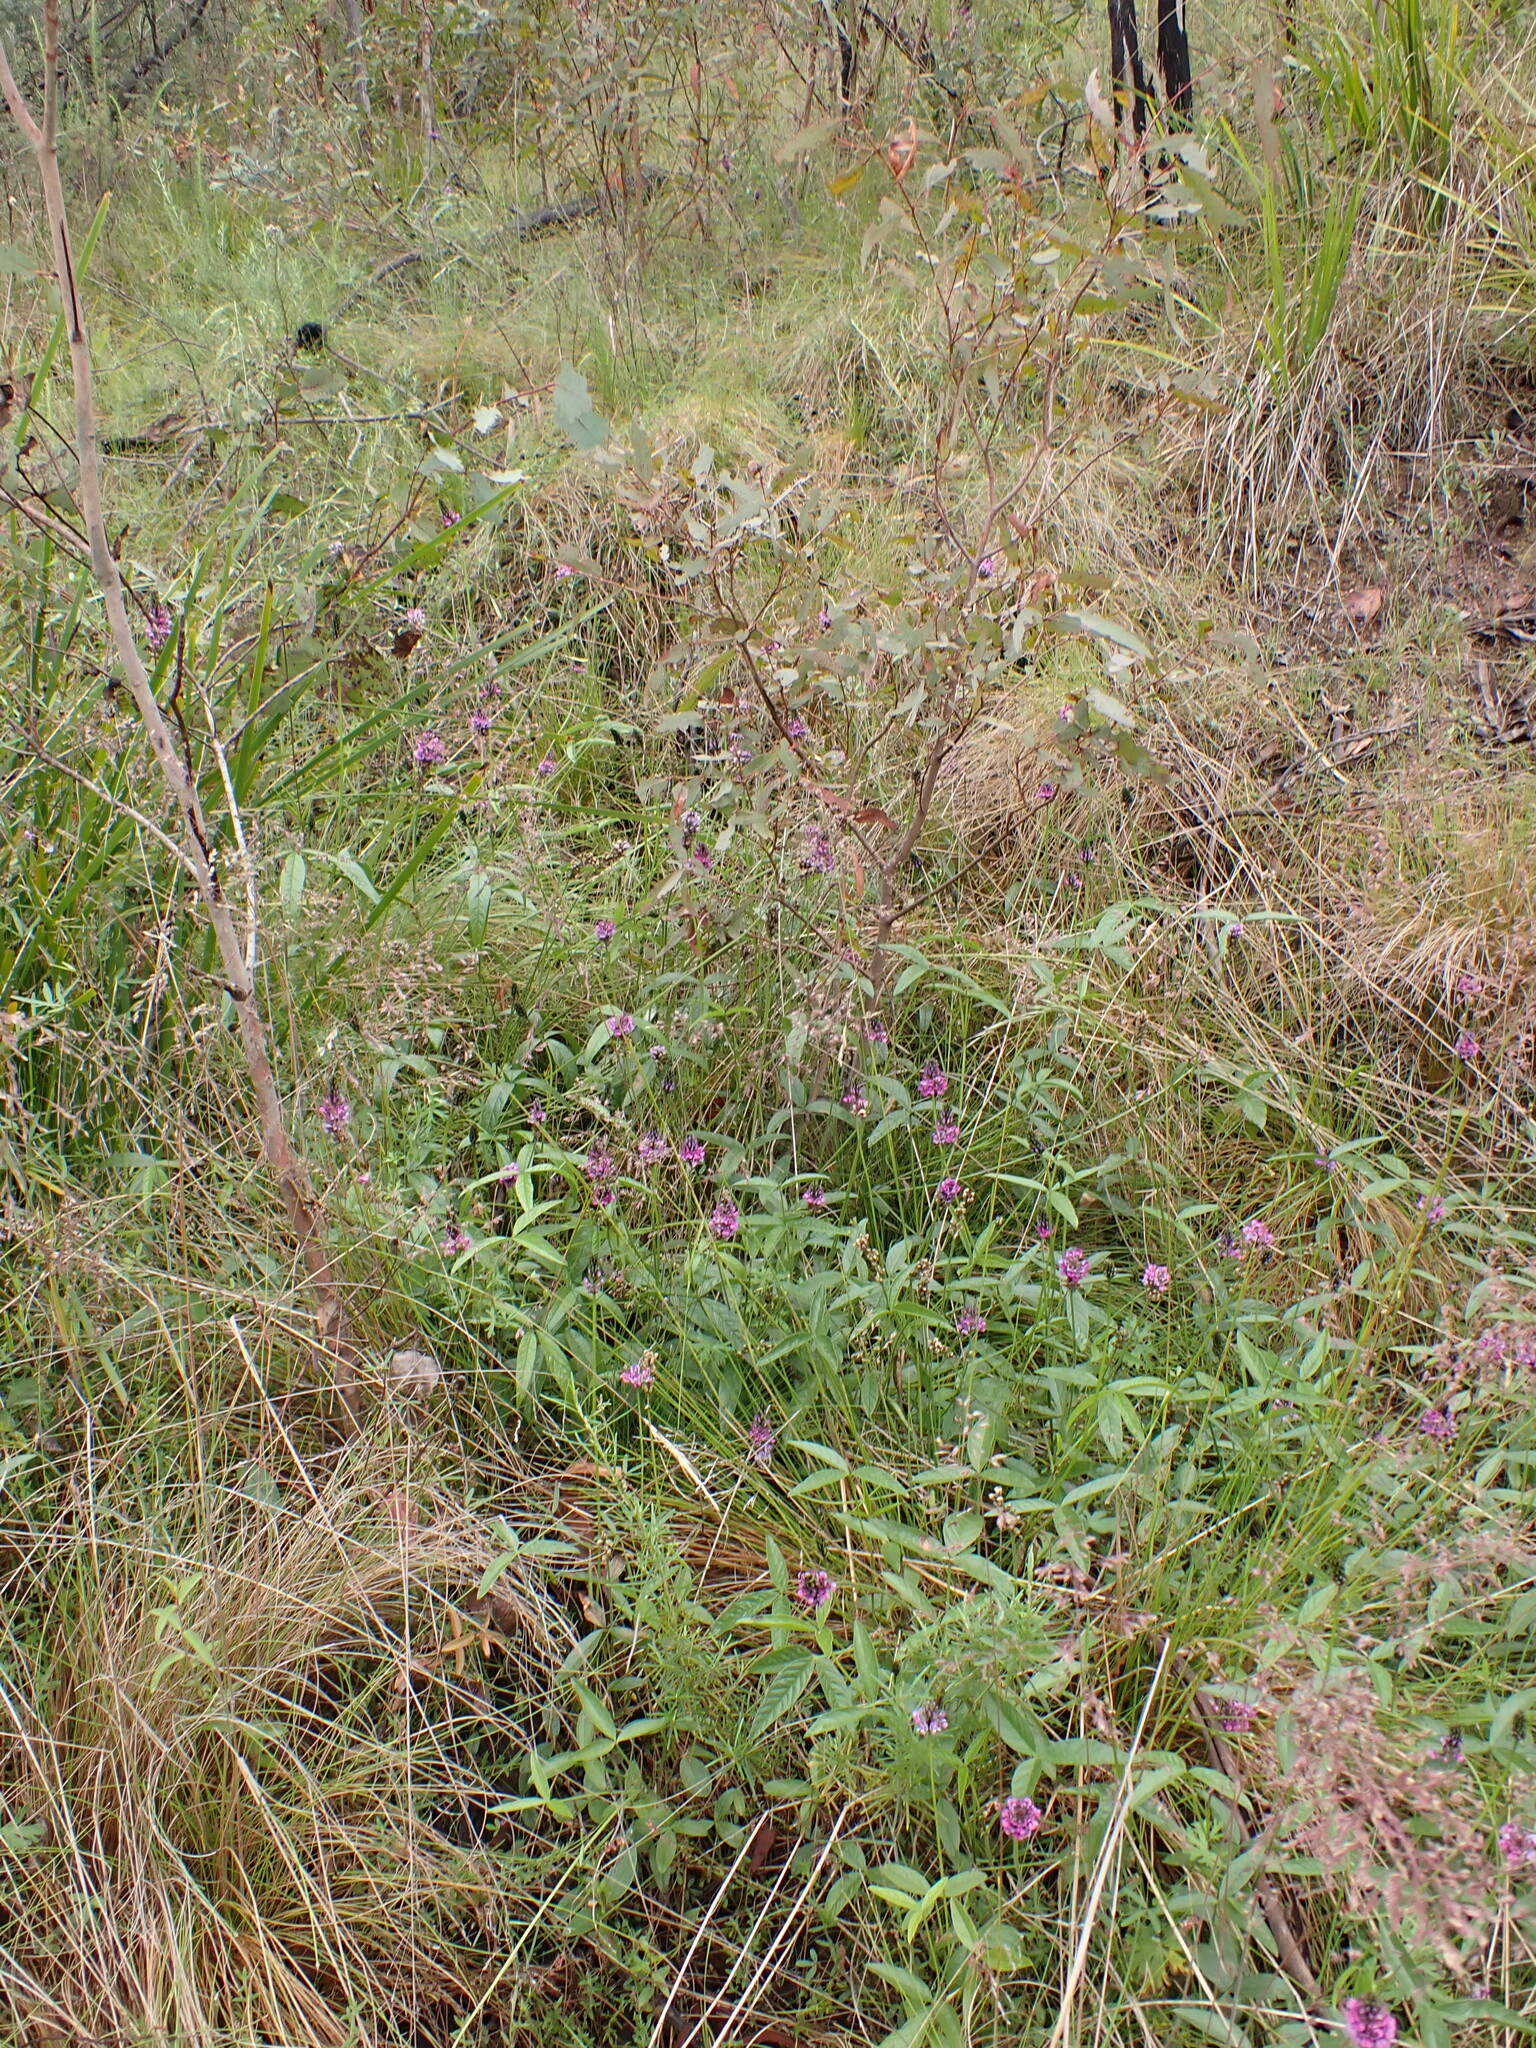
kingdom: Plantae
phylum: Tracheophyta
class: Magnoliopsida
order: Fabales
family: Fabaceae
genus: Cullen
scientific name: Cullen microcephalum
